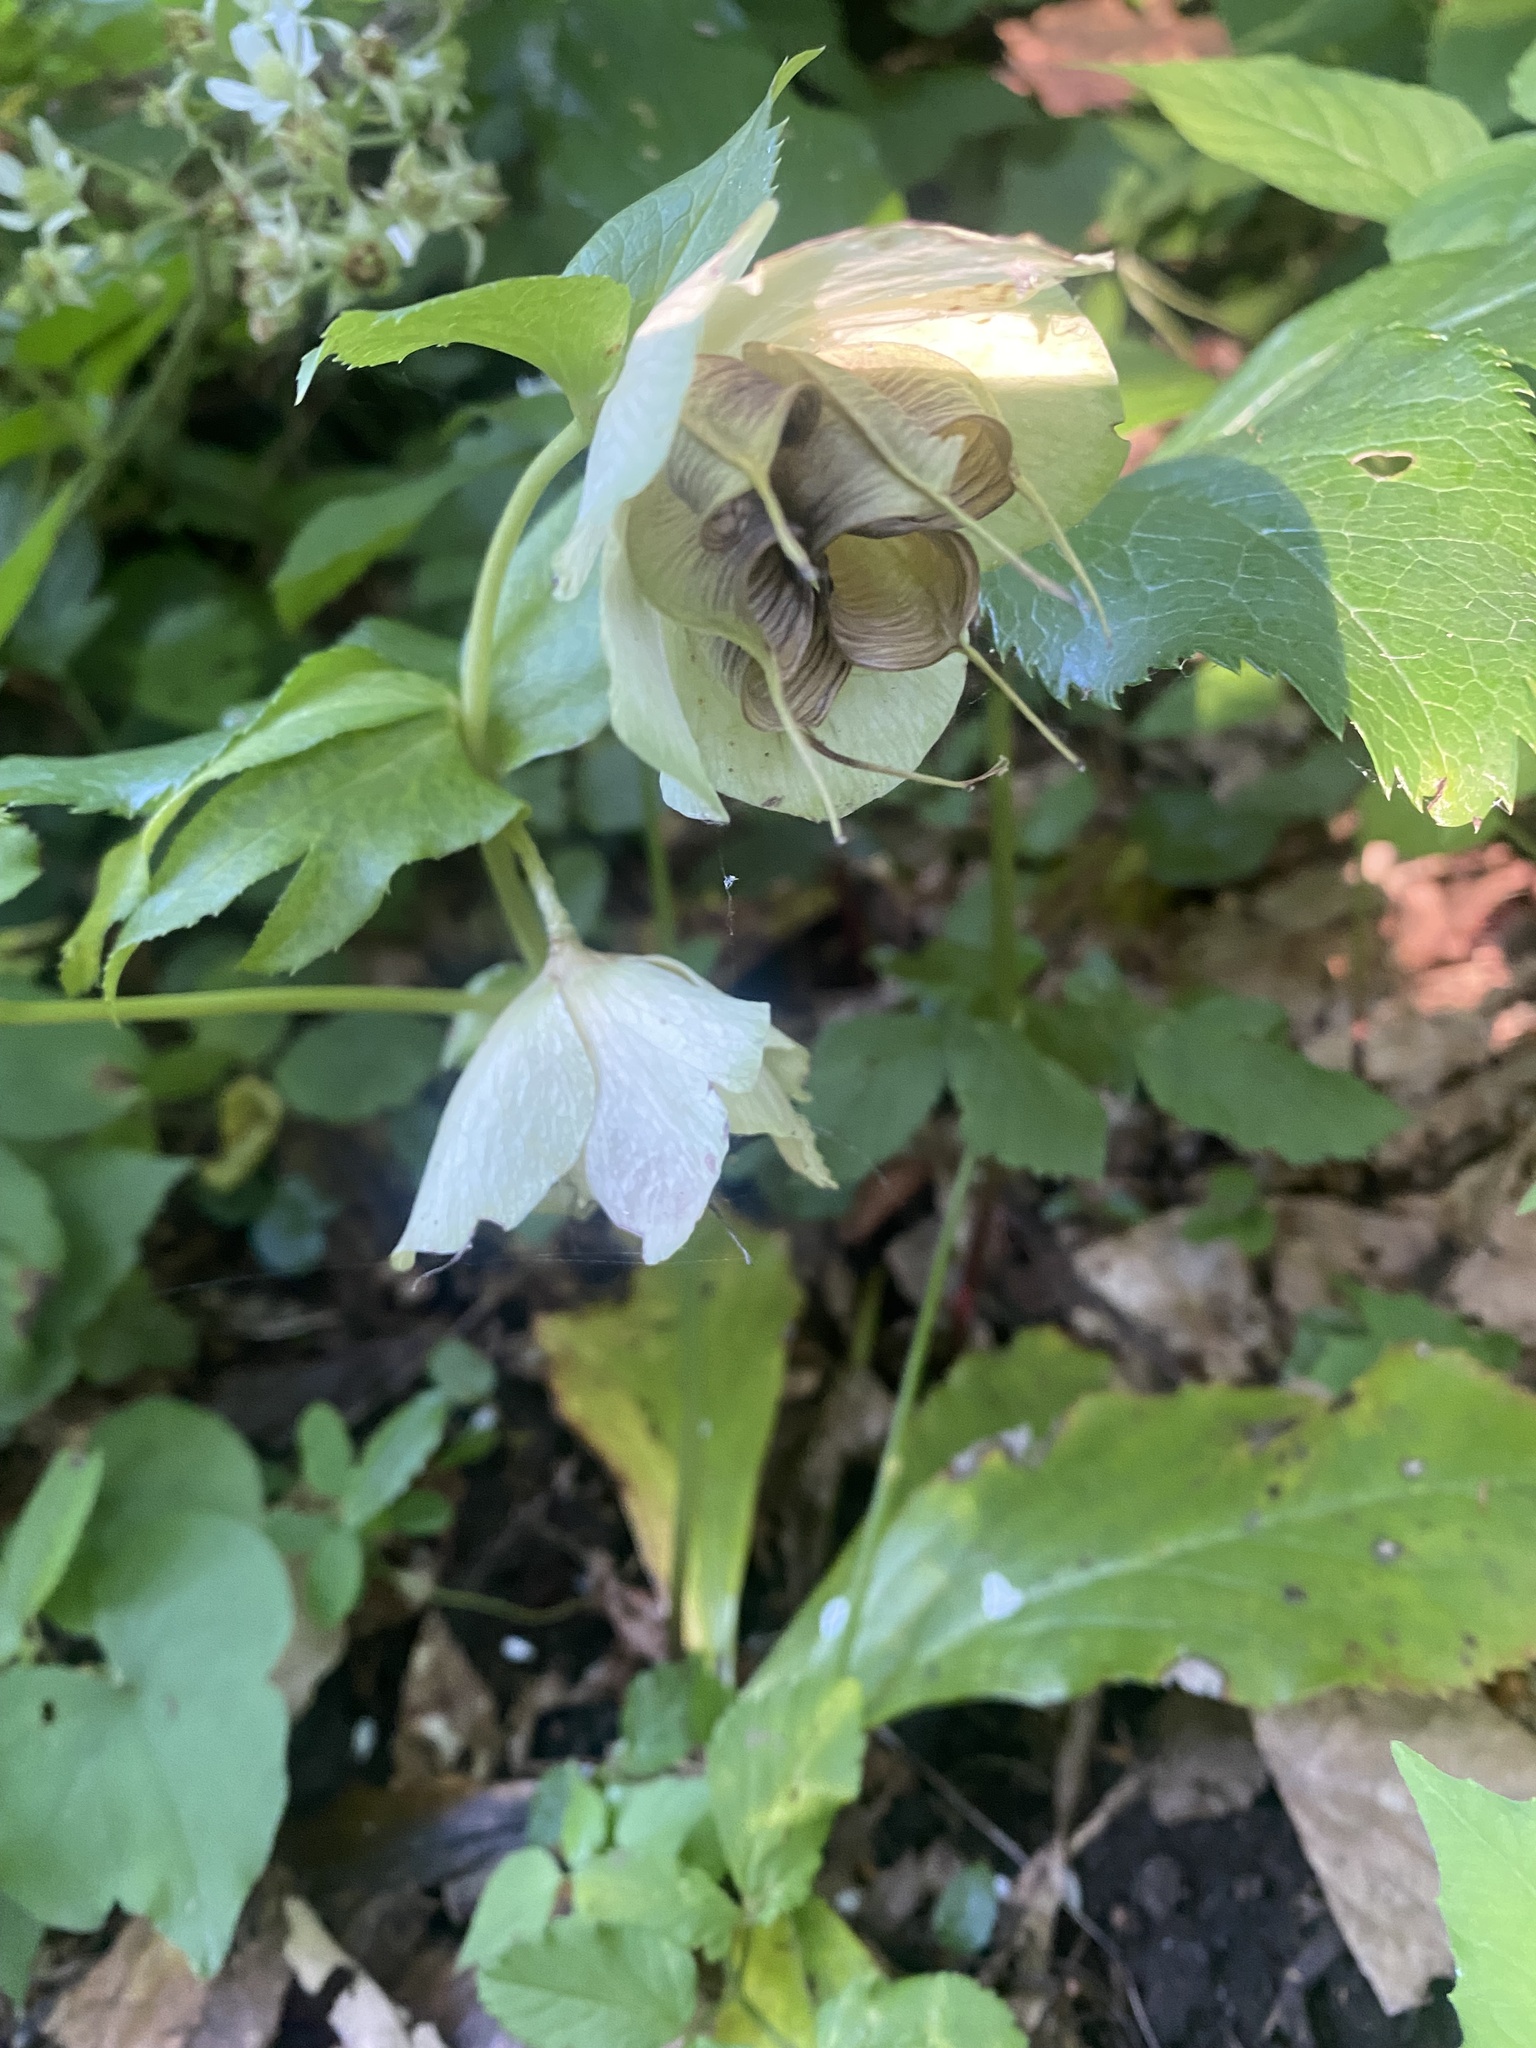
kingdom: Plantae
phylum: Tracheophyta
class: Magnoliopsida
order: Ranunculales
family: Ranunculaceae
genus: Helleborus
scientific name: Helleborus orientalis
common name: Lenten-rose
